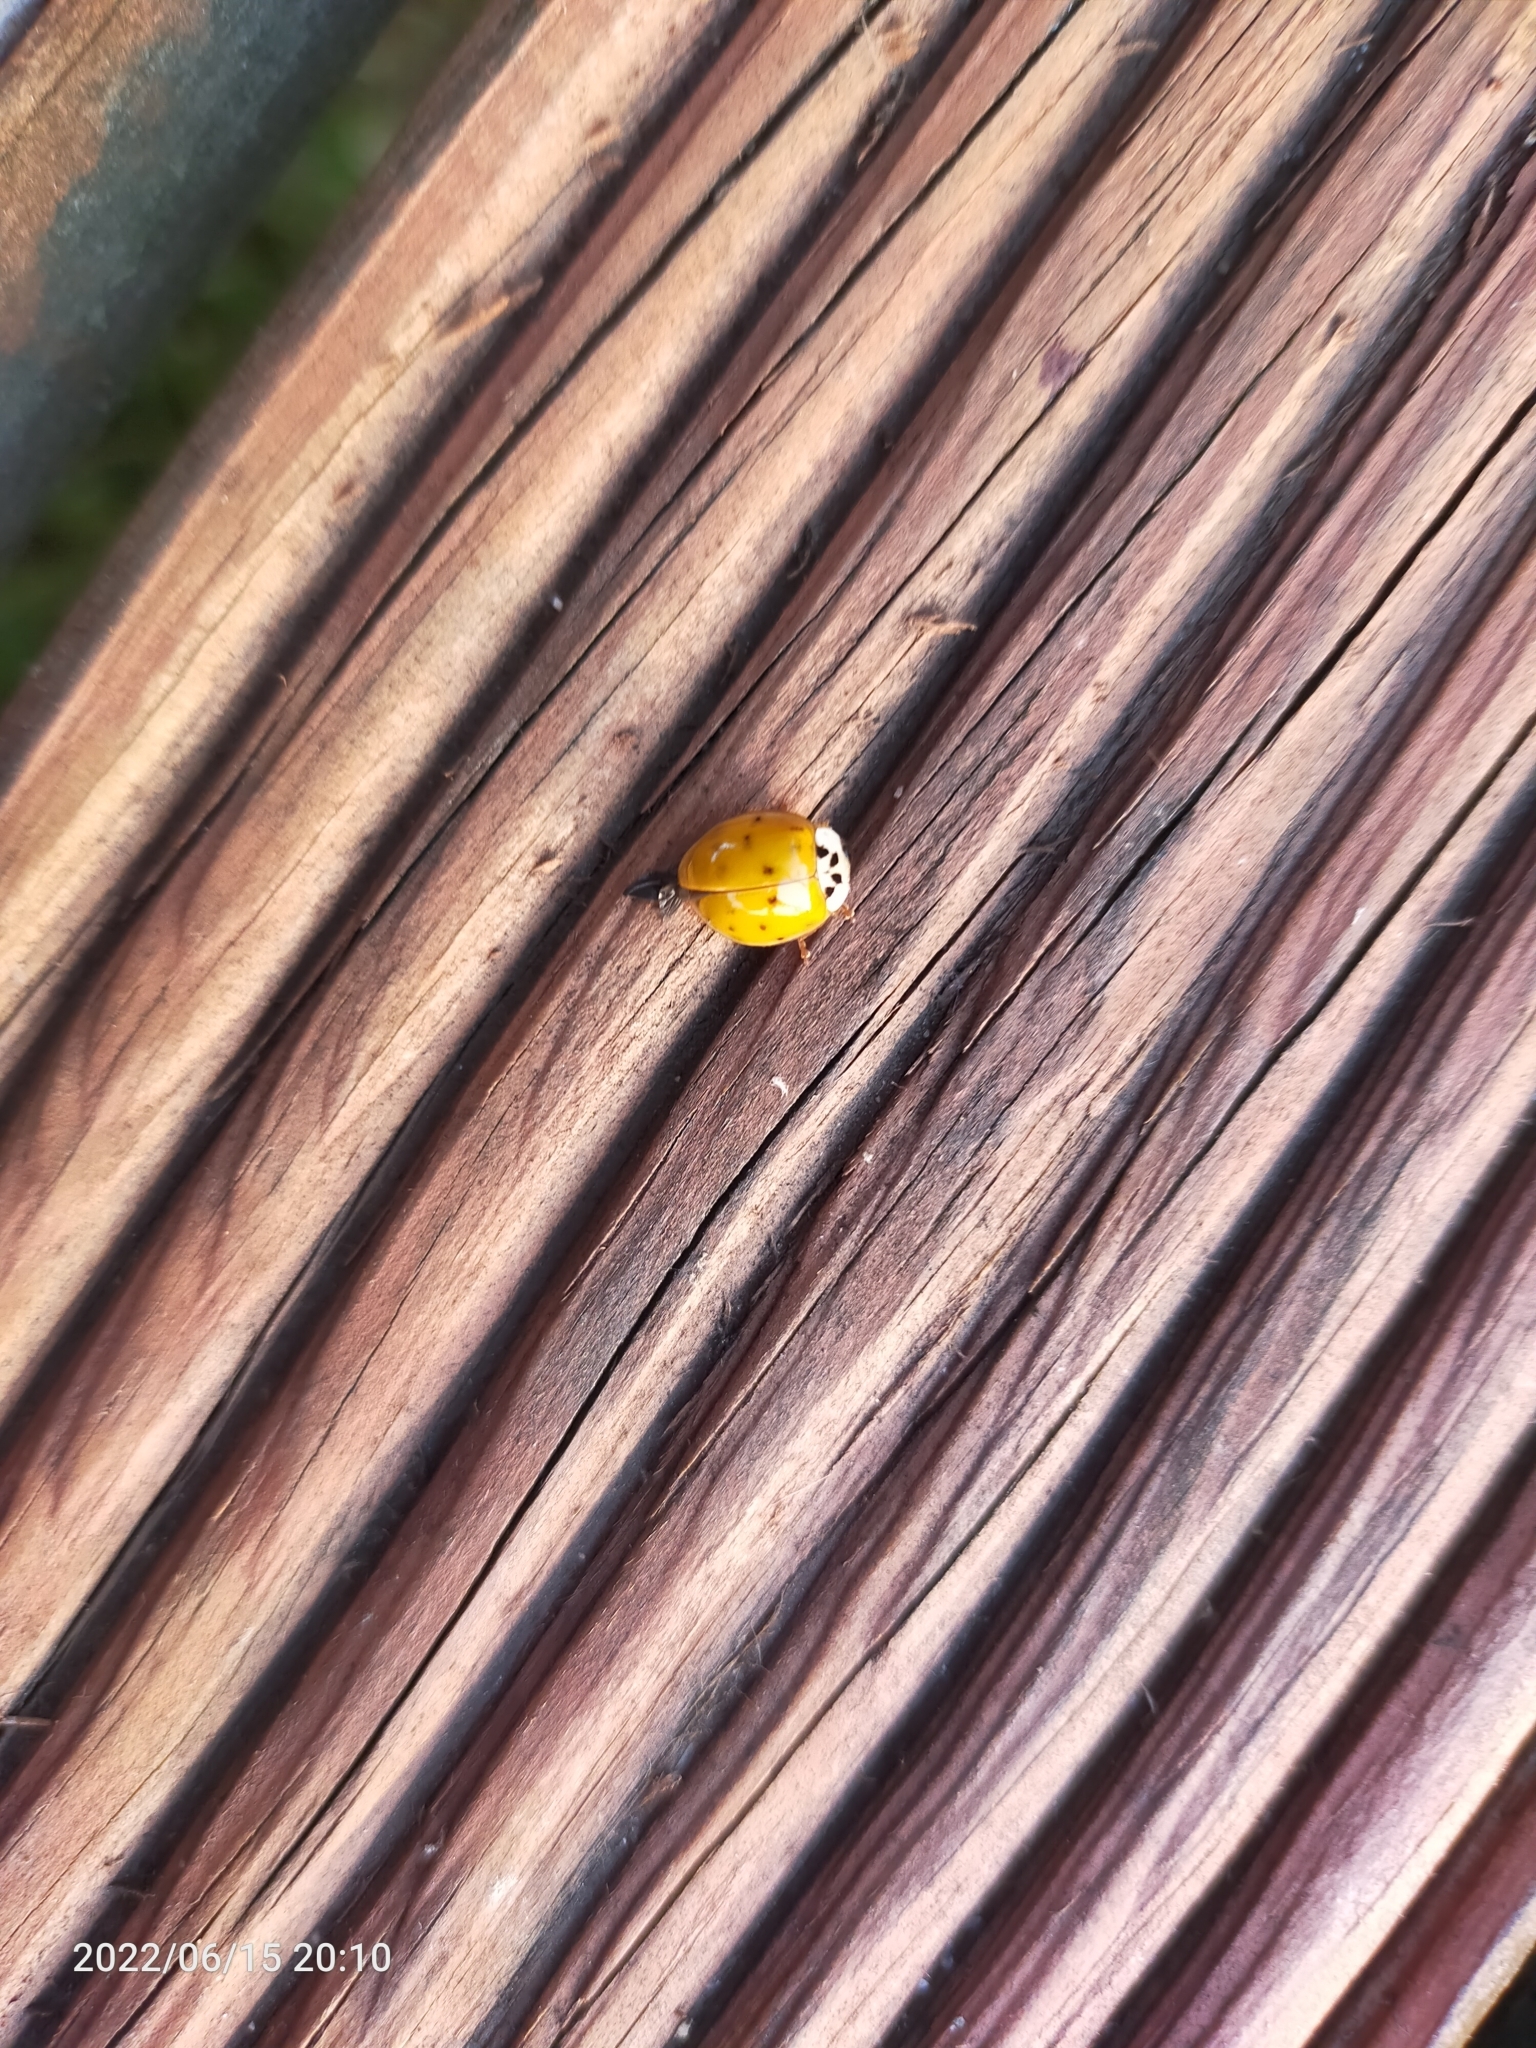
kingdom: Animalia
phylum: Arthropoda
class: Insecta
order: Coleoptera
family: Coccinellidae
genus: Harmonia
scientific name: Harmonia axyridis
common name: Harlequin ladybird
